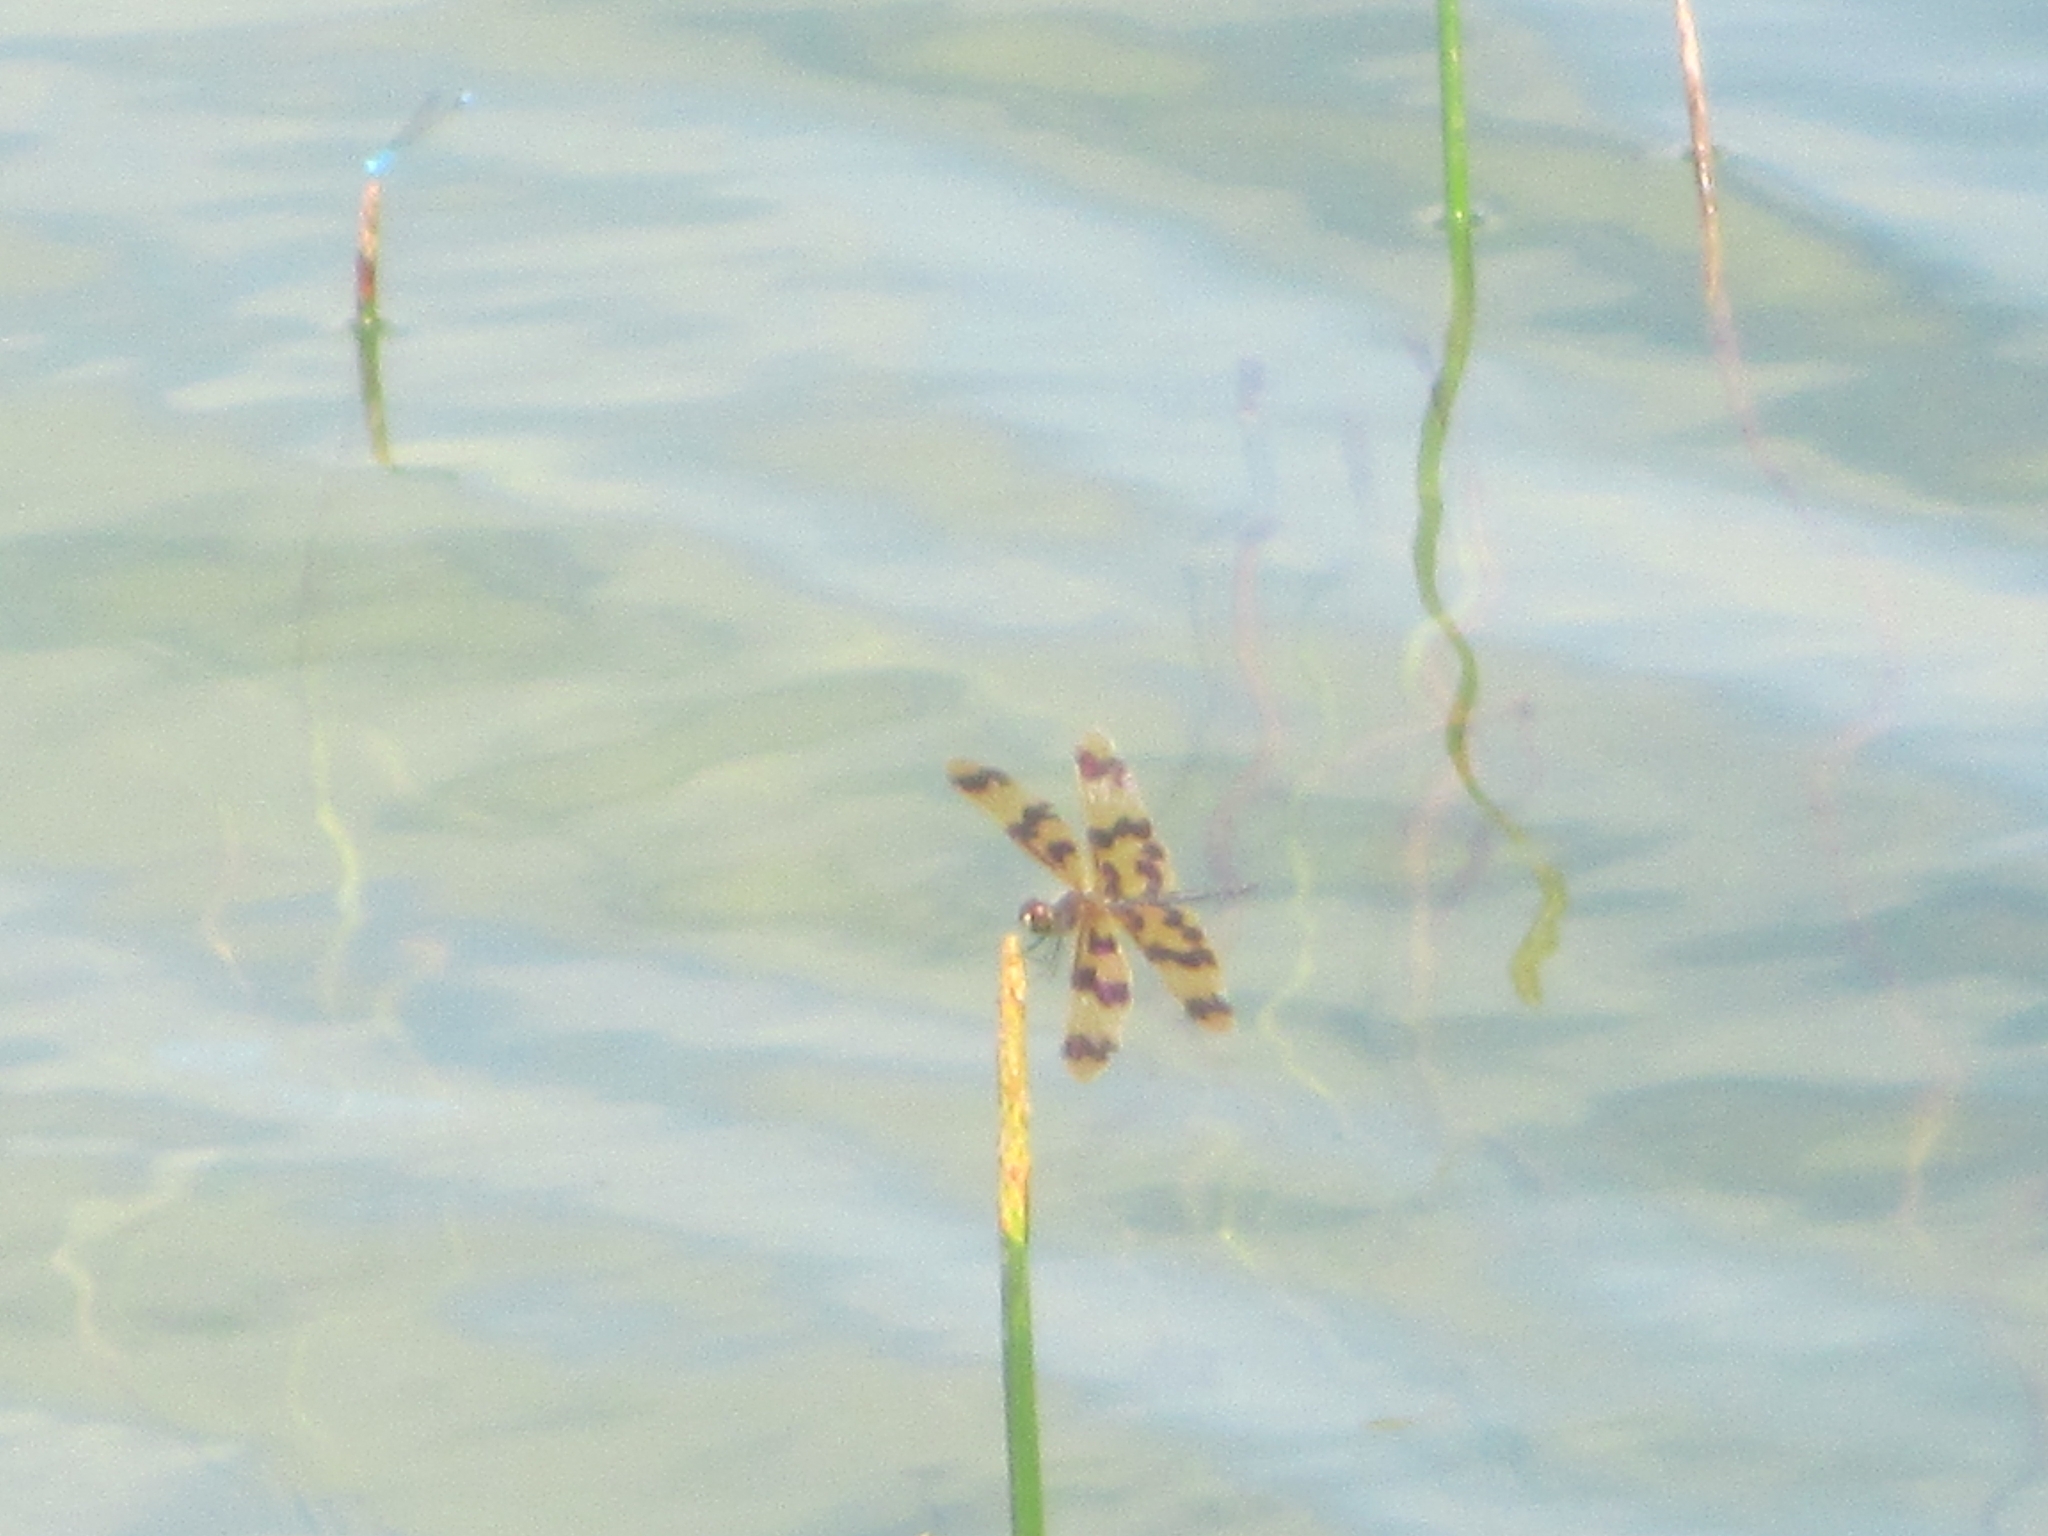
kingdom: Animalia
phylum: Arthropoda
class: Insecta
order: Odonata
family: Libellulidae
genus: Rhyothemis
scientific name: Rhyothemis graphiptera
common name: Graphic flutterer
